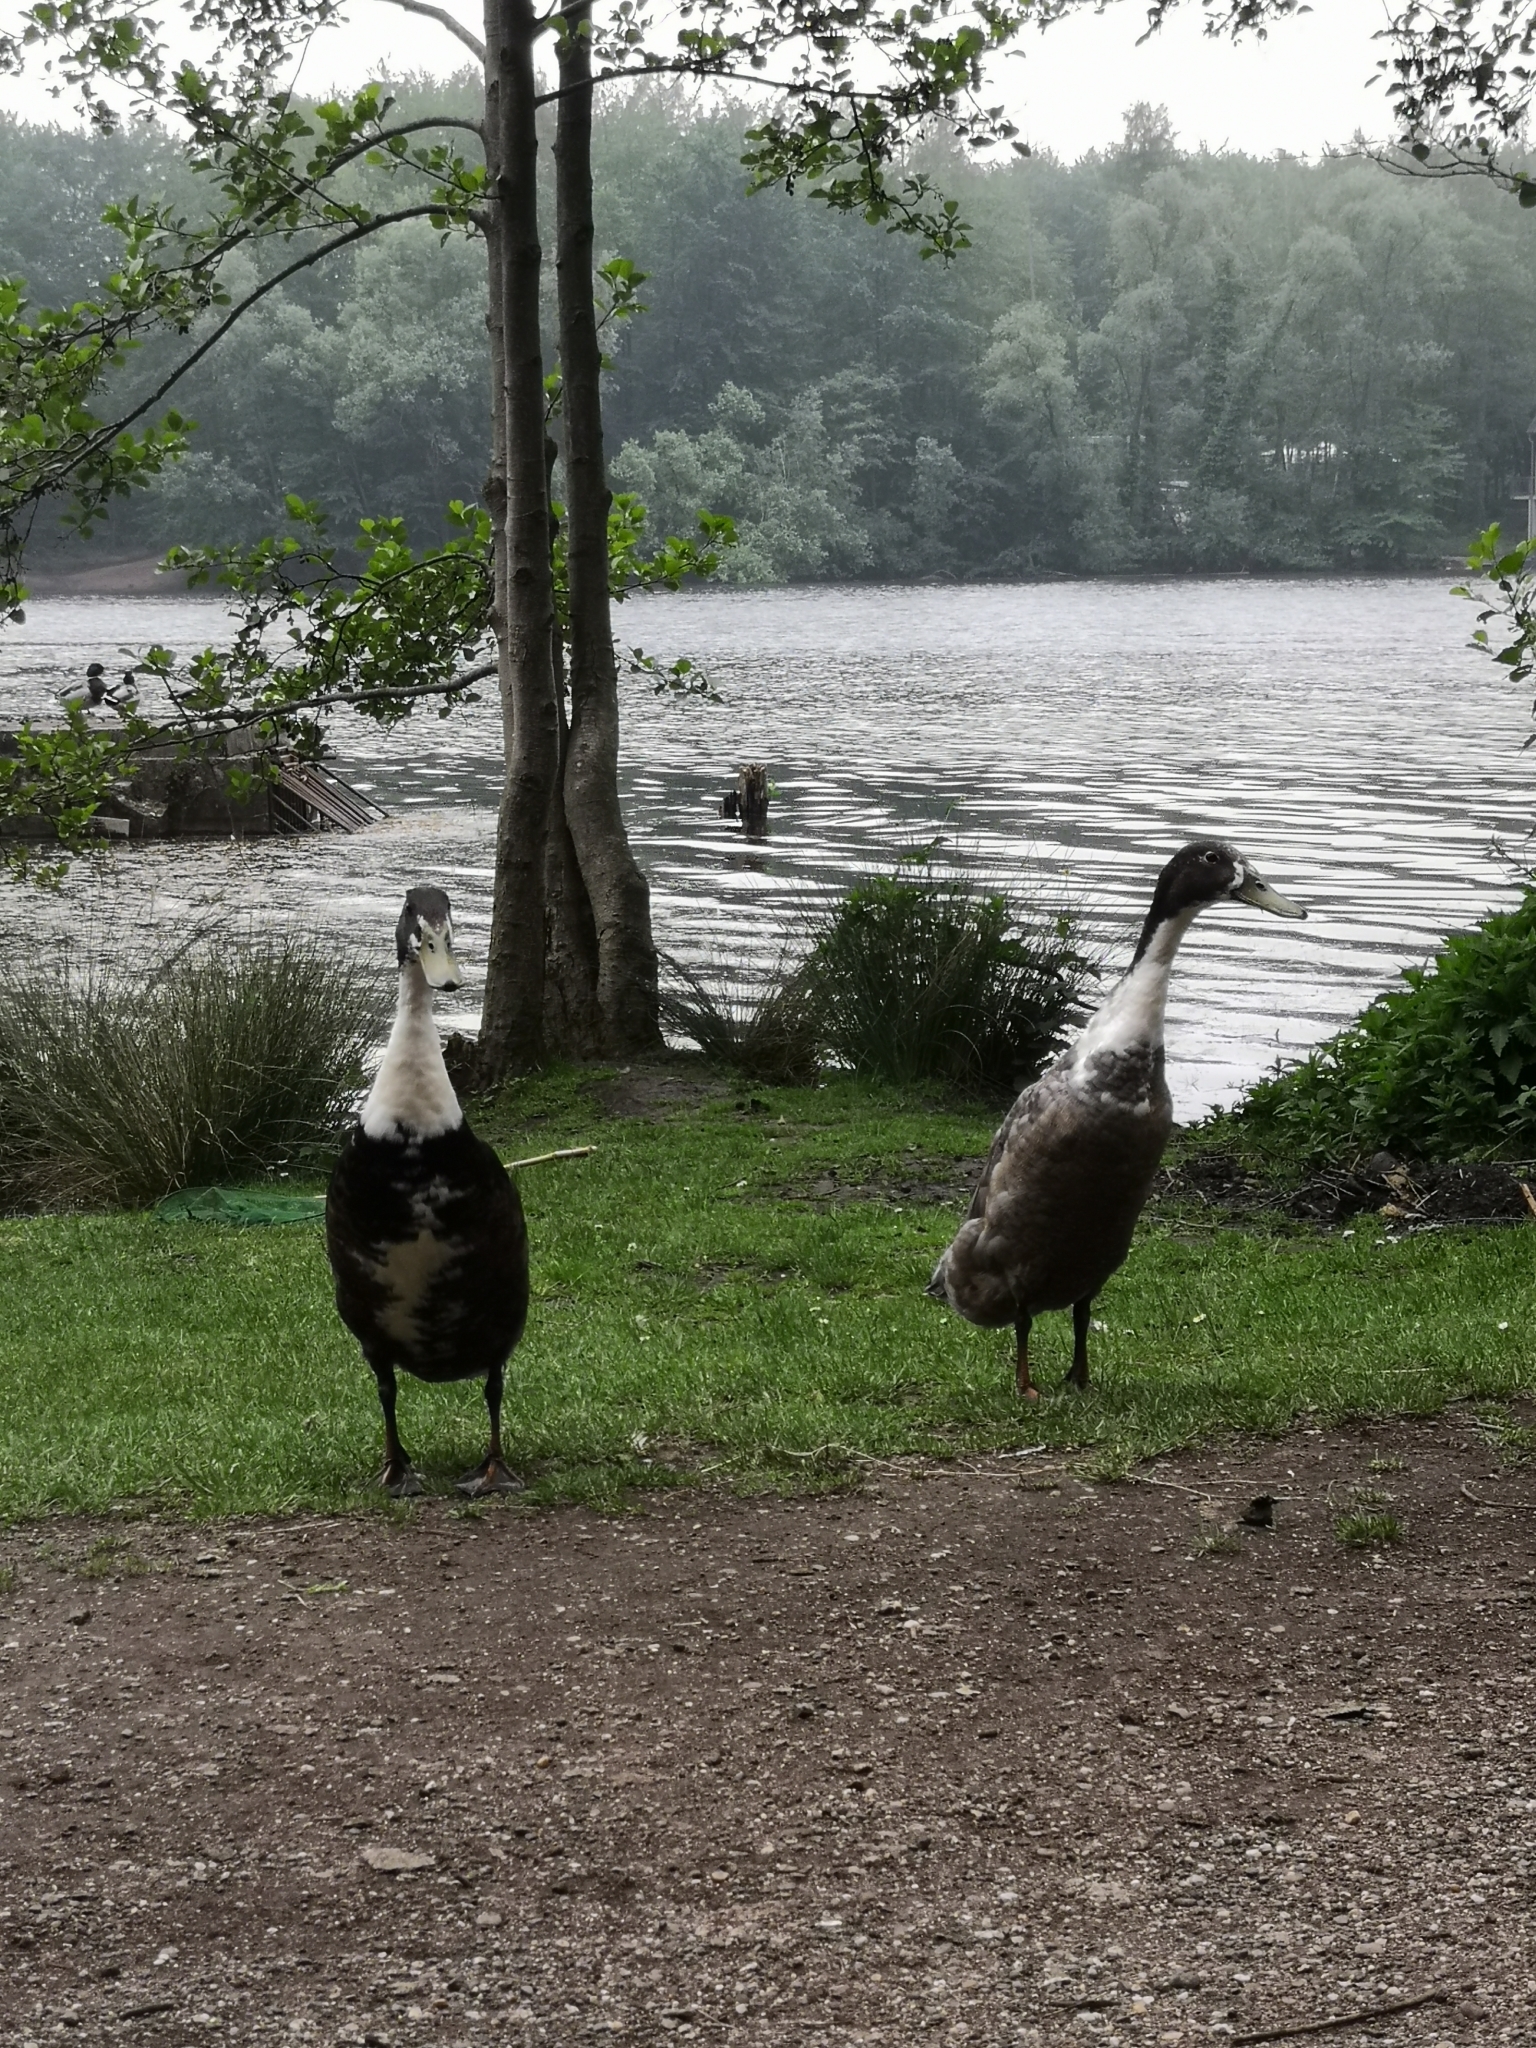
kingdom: Animalia
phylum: Chordata
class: Aves
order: Anseriformes
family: Anatidae
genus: Anas
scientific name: Anas platyrhynchos
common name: Mallard
